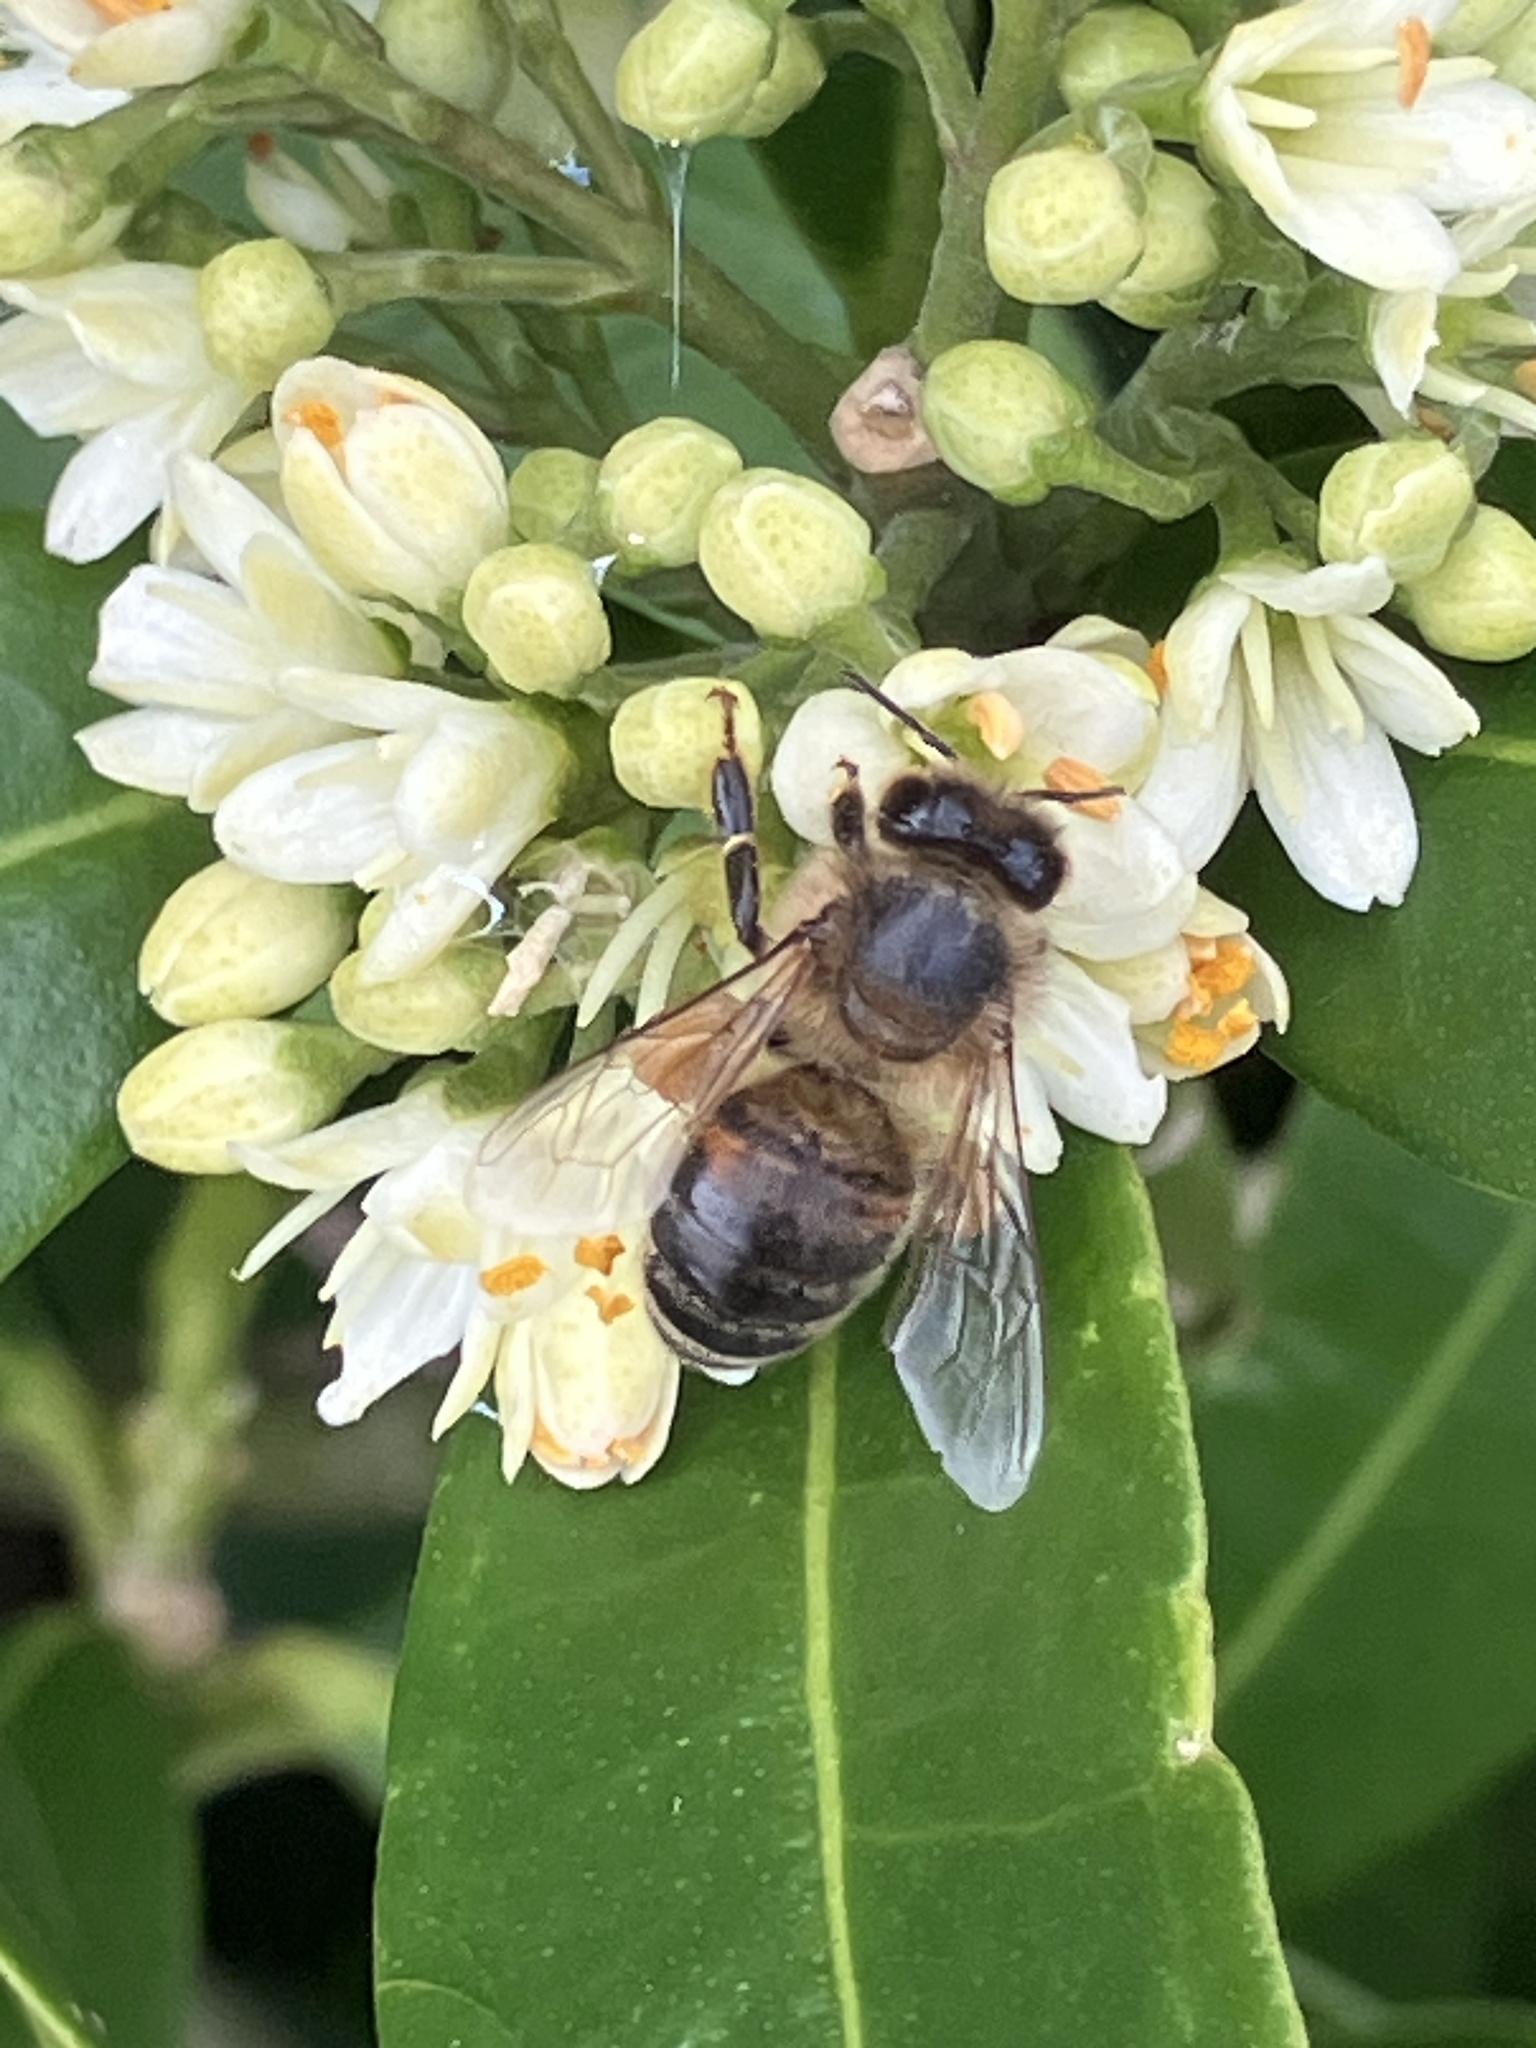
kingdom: Animalia
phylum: Arthropoda
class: Insecta
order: Hymenoptera
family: Apidae
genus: Apis
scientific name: Apis mellifera
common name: Honey bee
